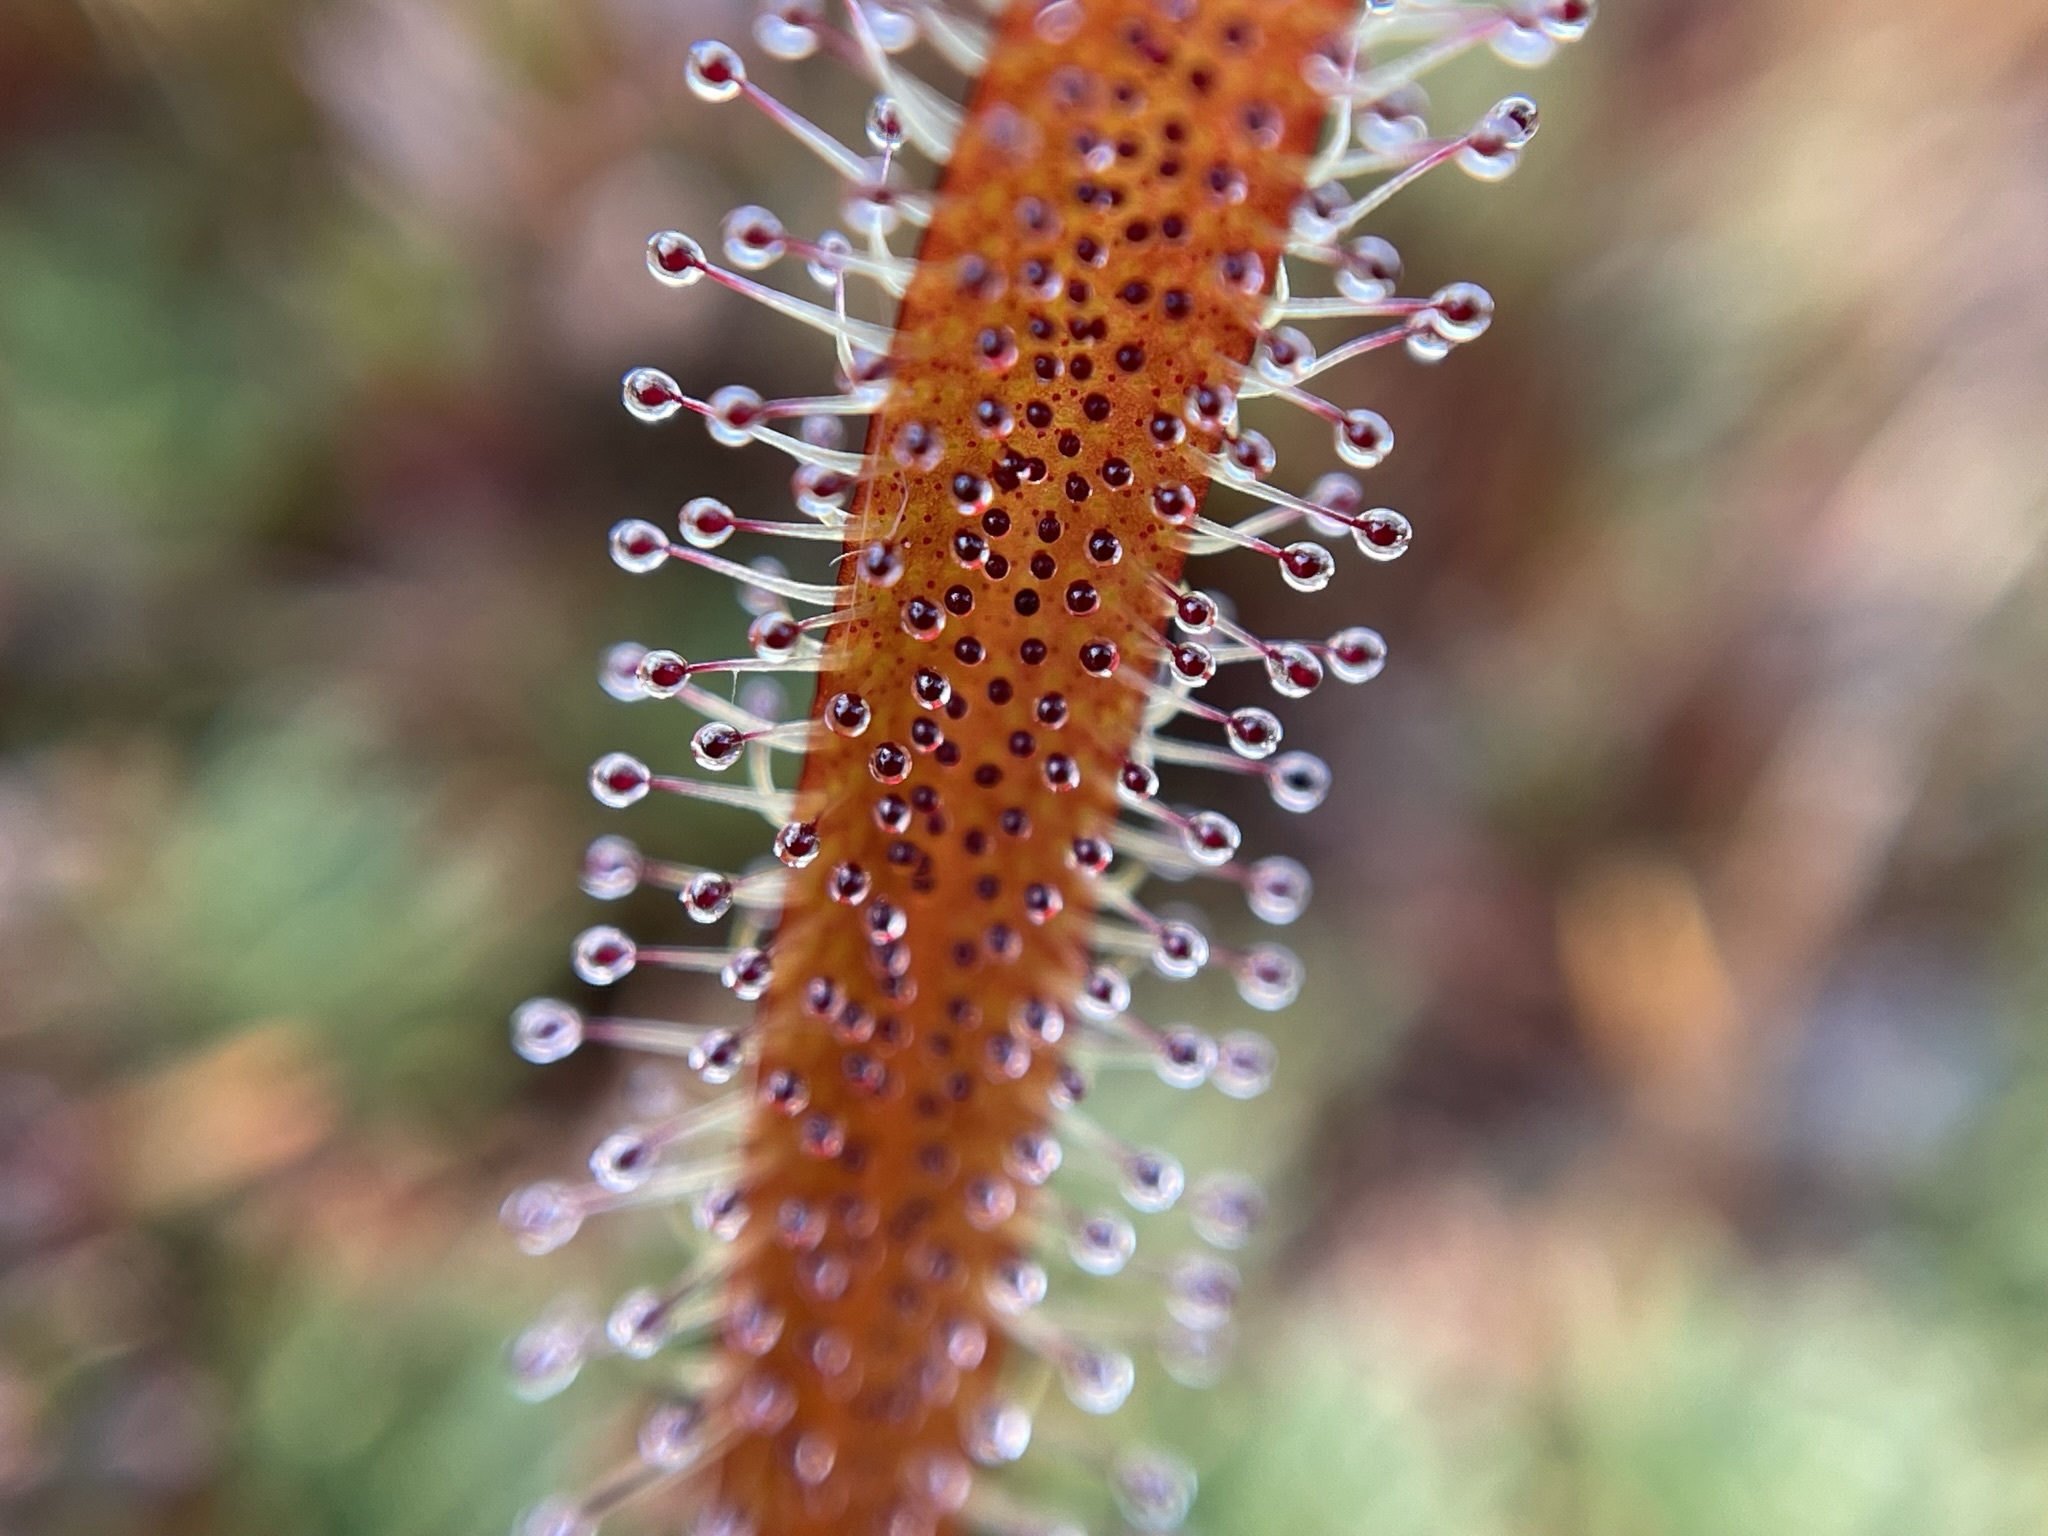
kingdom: Plantae
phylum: Tracheophyta
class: Magnoliopsida
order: Caryophyllales
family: Droseraceae
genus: Drosera
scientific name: Drosera arcturi
